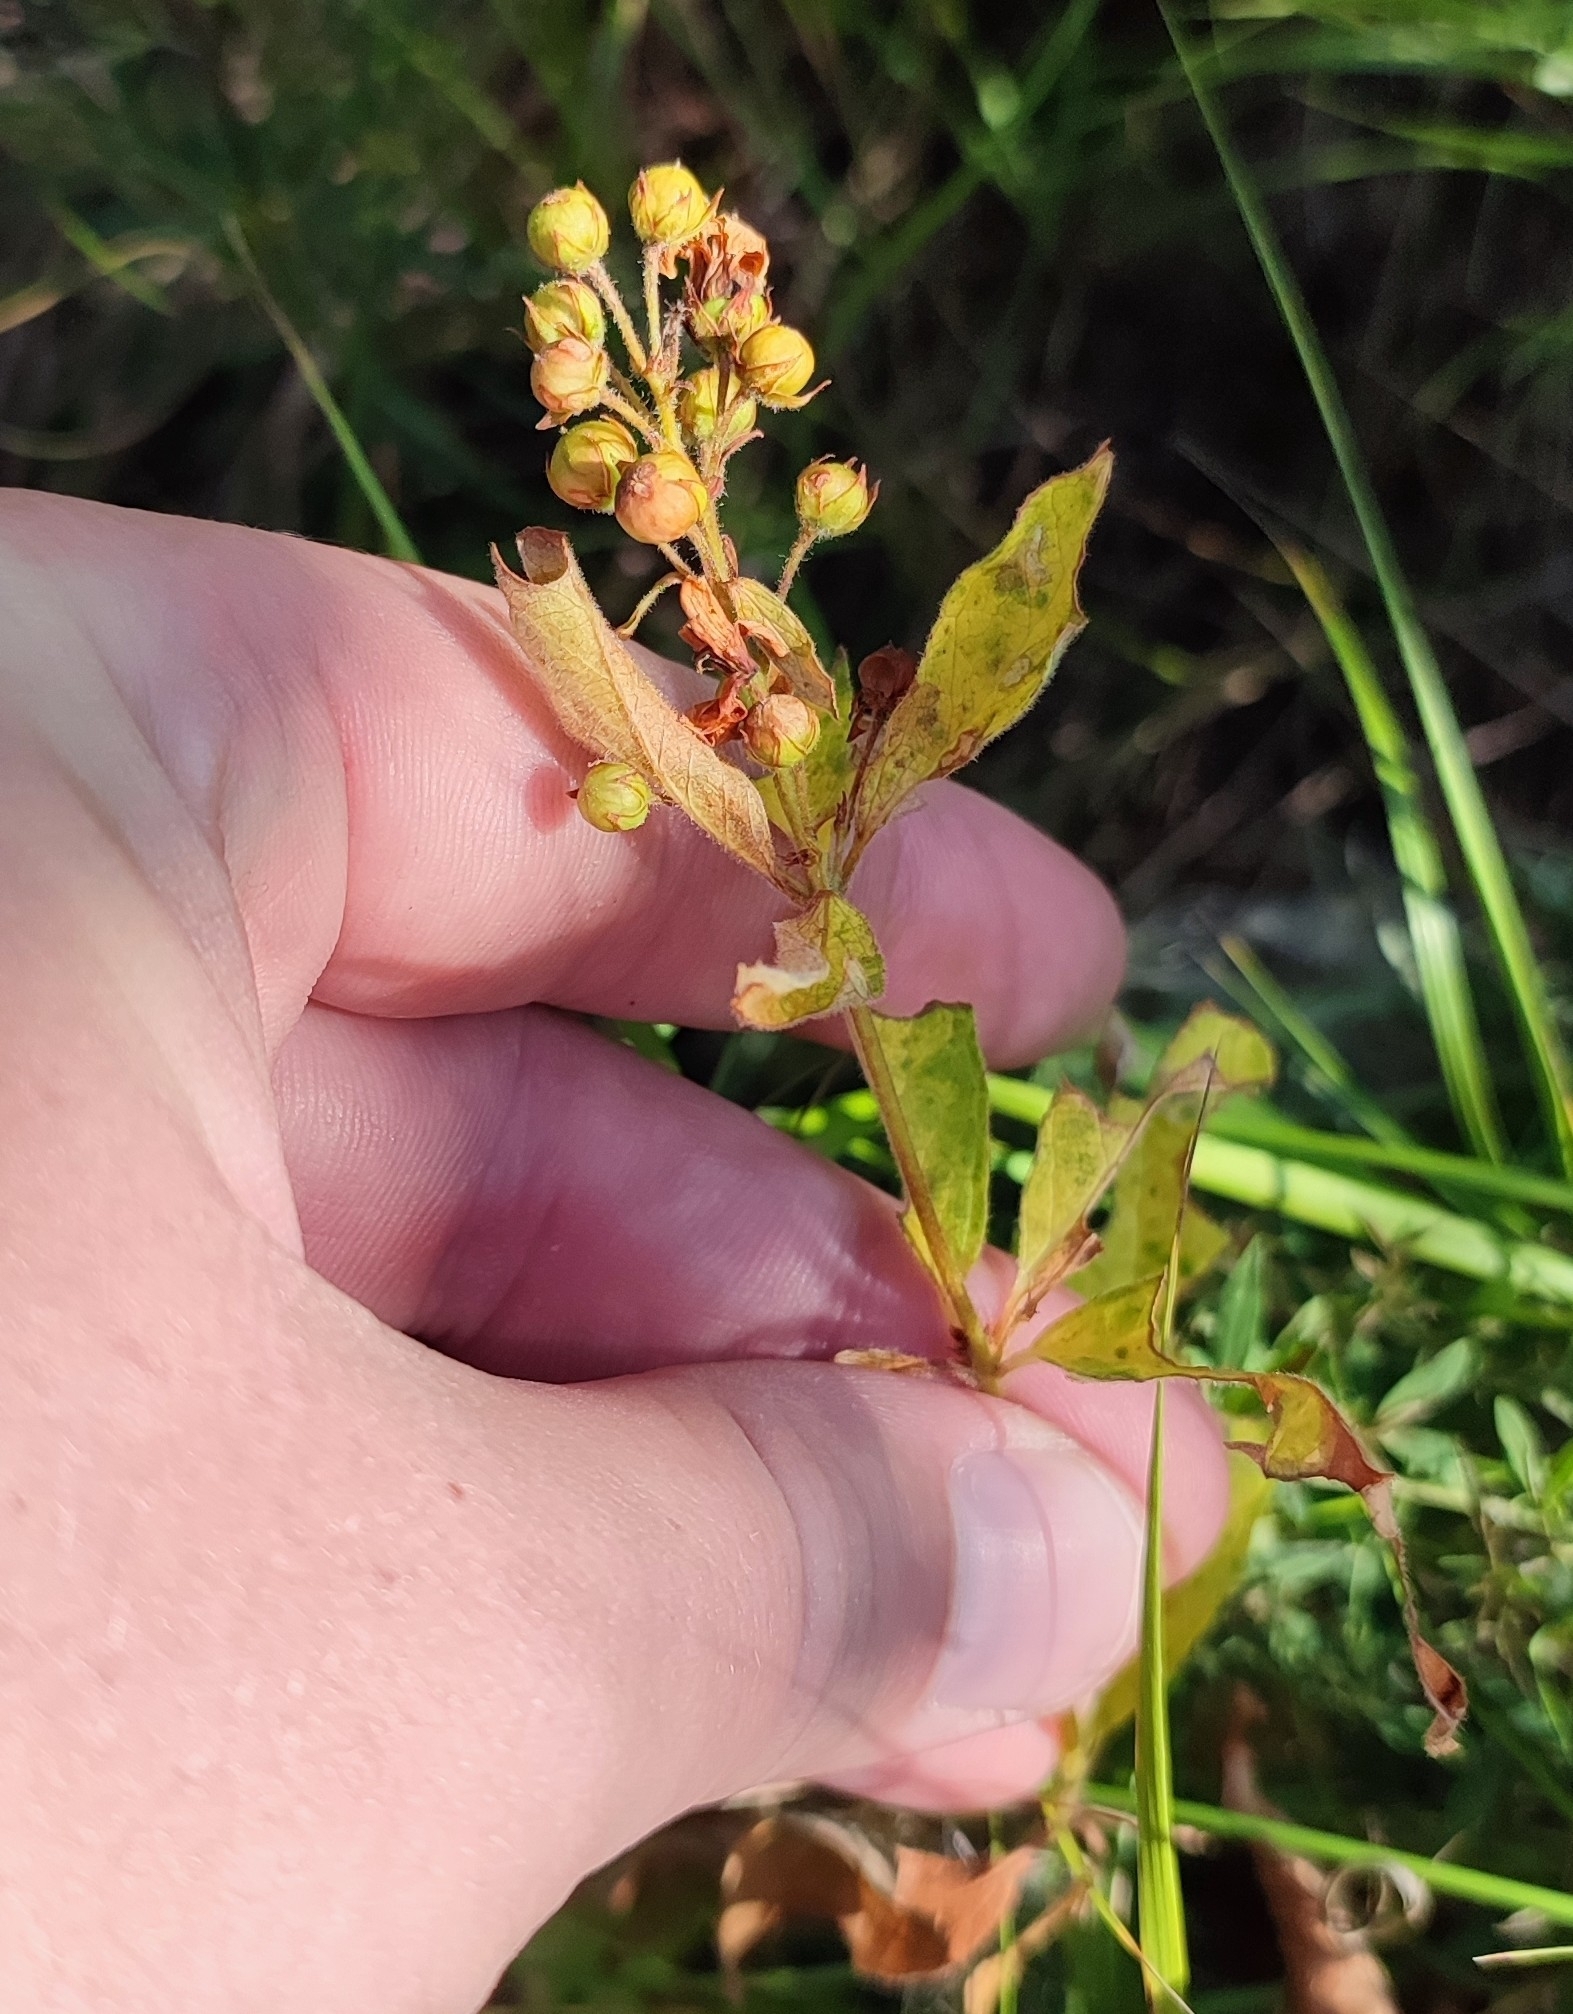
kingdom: Plantae
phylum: Tracheophyta
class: Magnoliopsida
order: Ericales
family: Primulaceae
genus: Lysimachia
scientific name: Lysimachia vulgaris
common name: Yellow loosestrife
